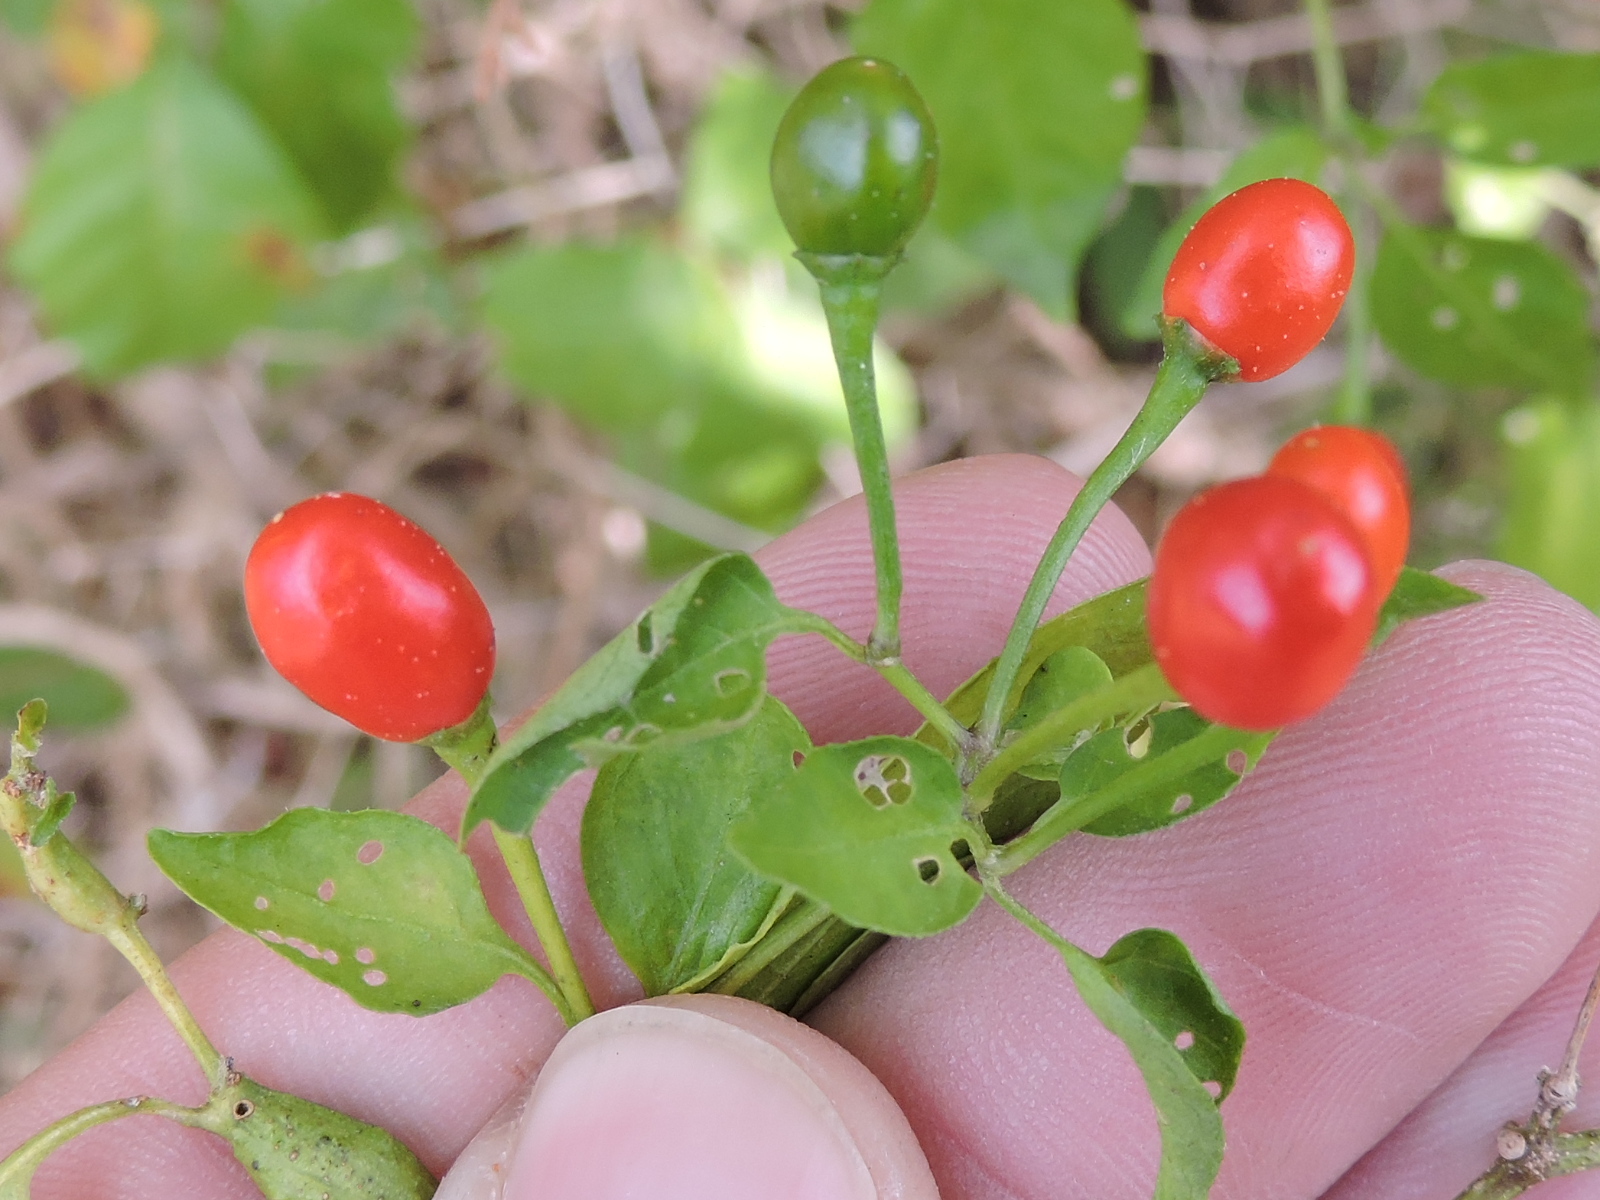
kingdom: Plantae
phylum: Tracheophyta
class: Magnoliopsida
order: Solanales
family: Solanaceae
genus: Capsicum
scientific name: Capsicum annuum
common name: Sweet pepper
